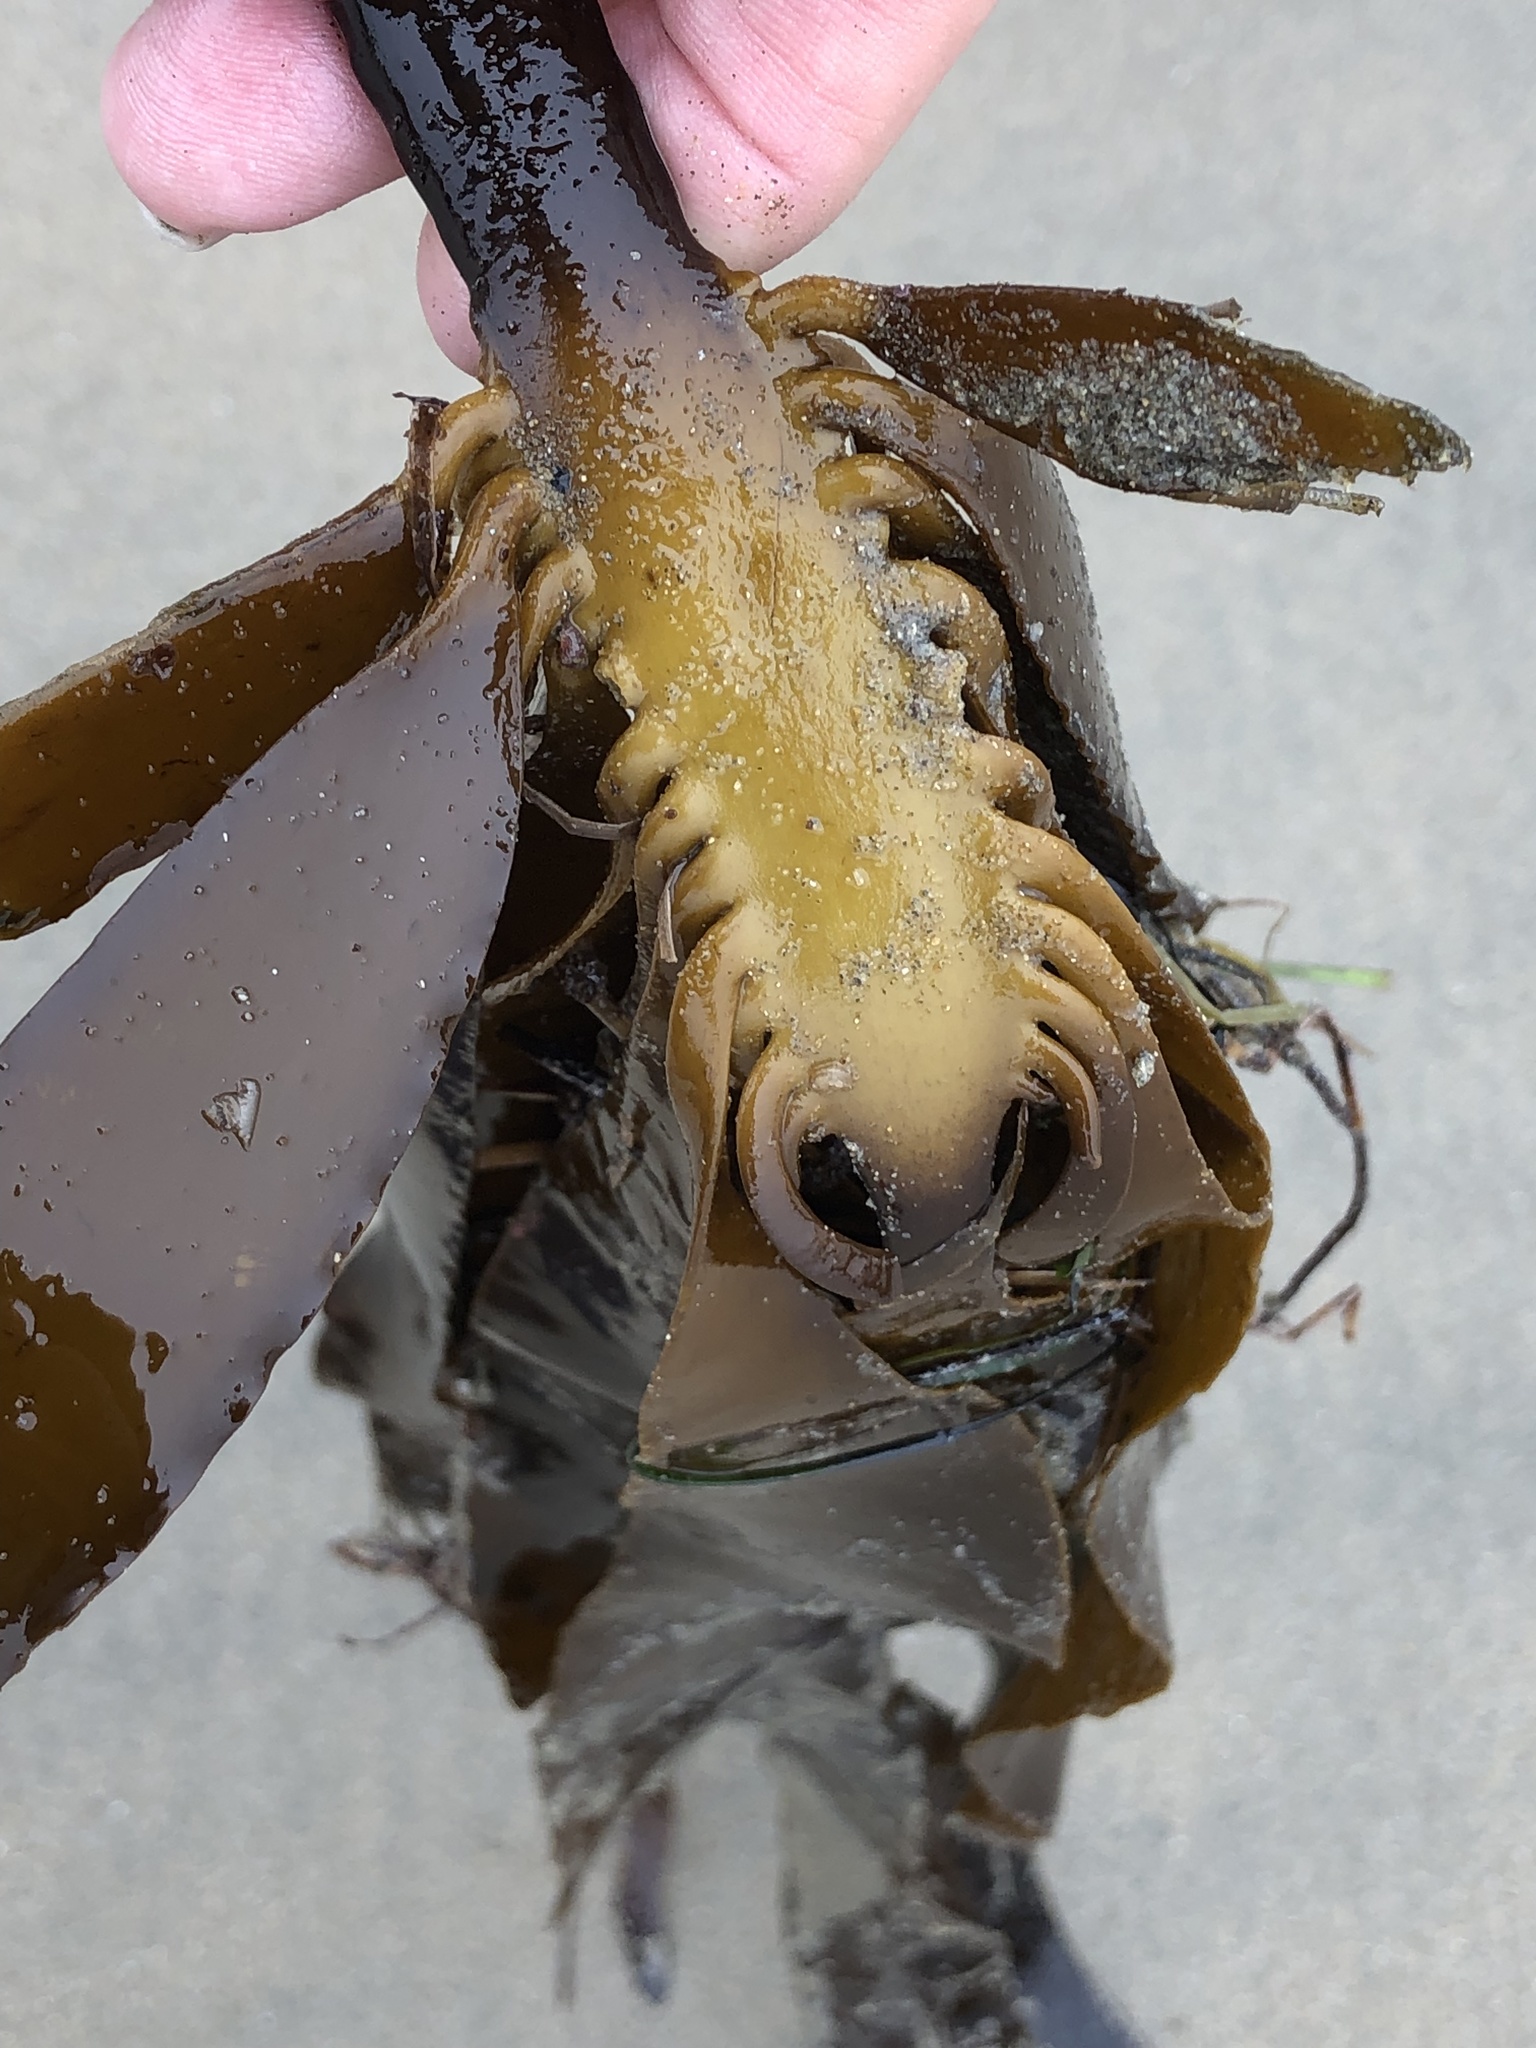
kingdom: Chromista
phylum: Ochrophyta
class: Phaeophyceae
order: Laminariales
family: Alariaceae
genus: Pterygophora
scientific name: Pterygophora californica
